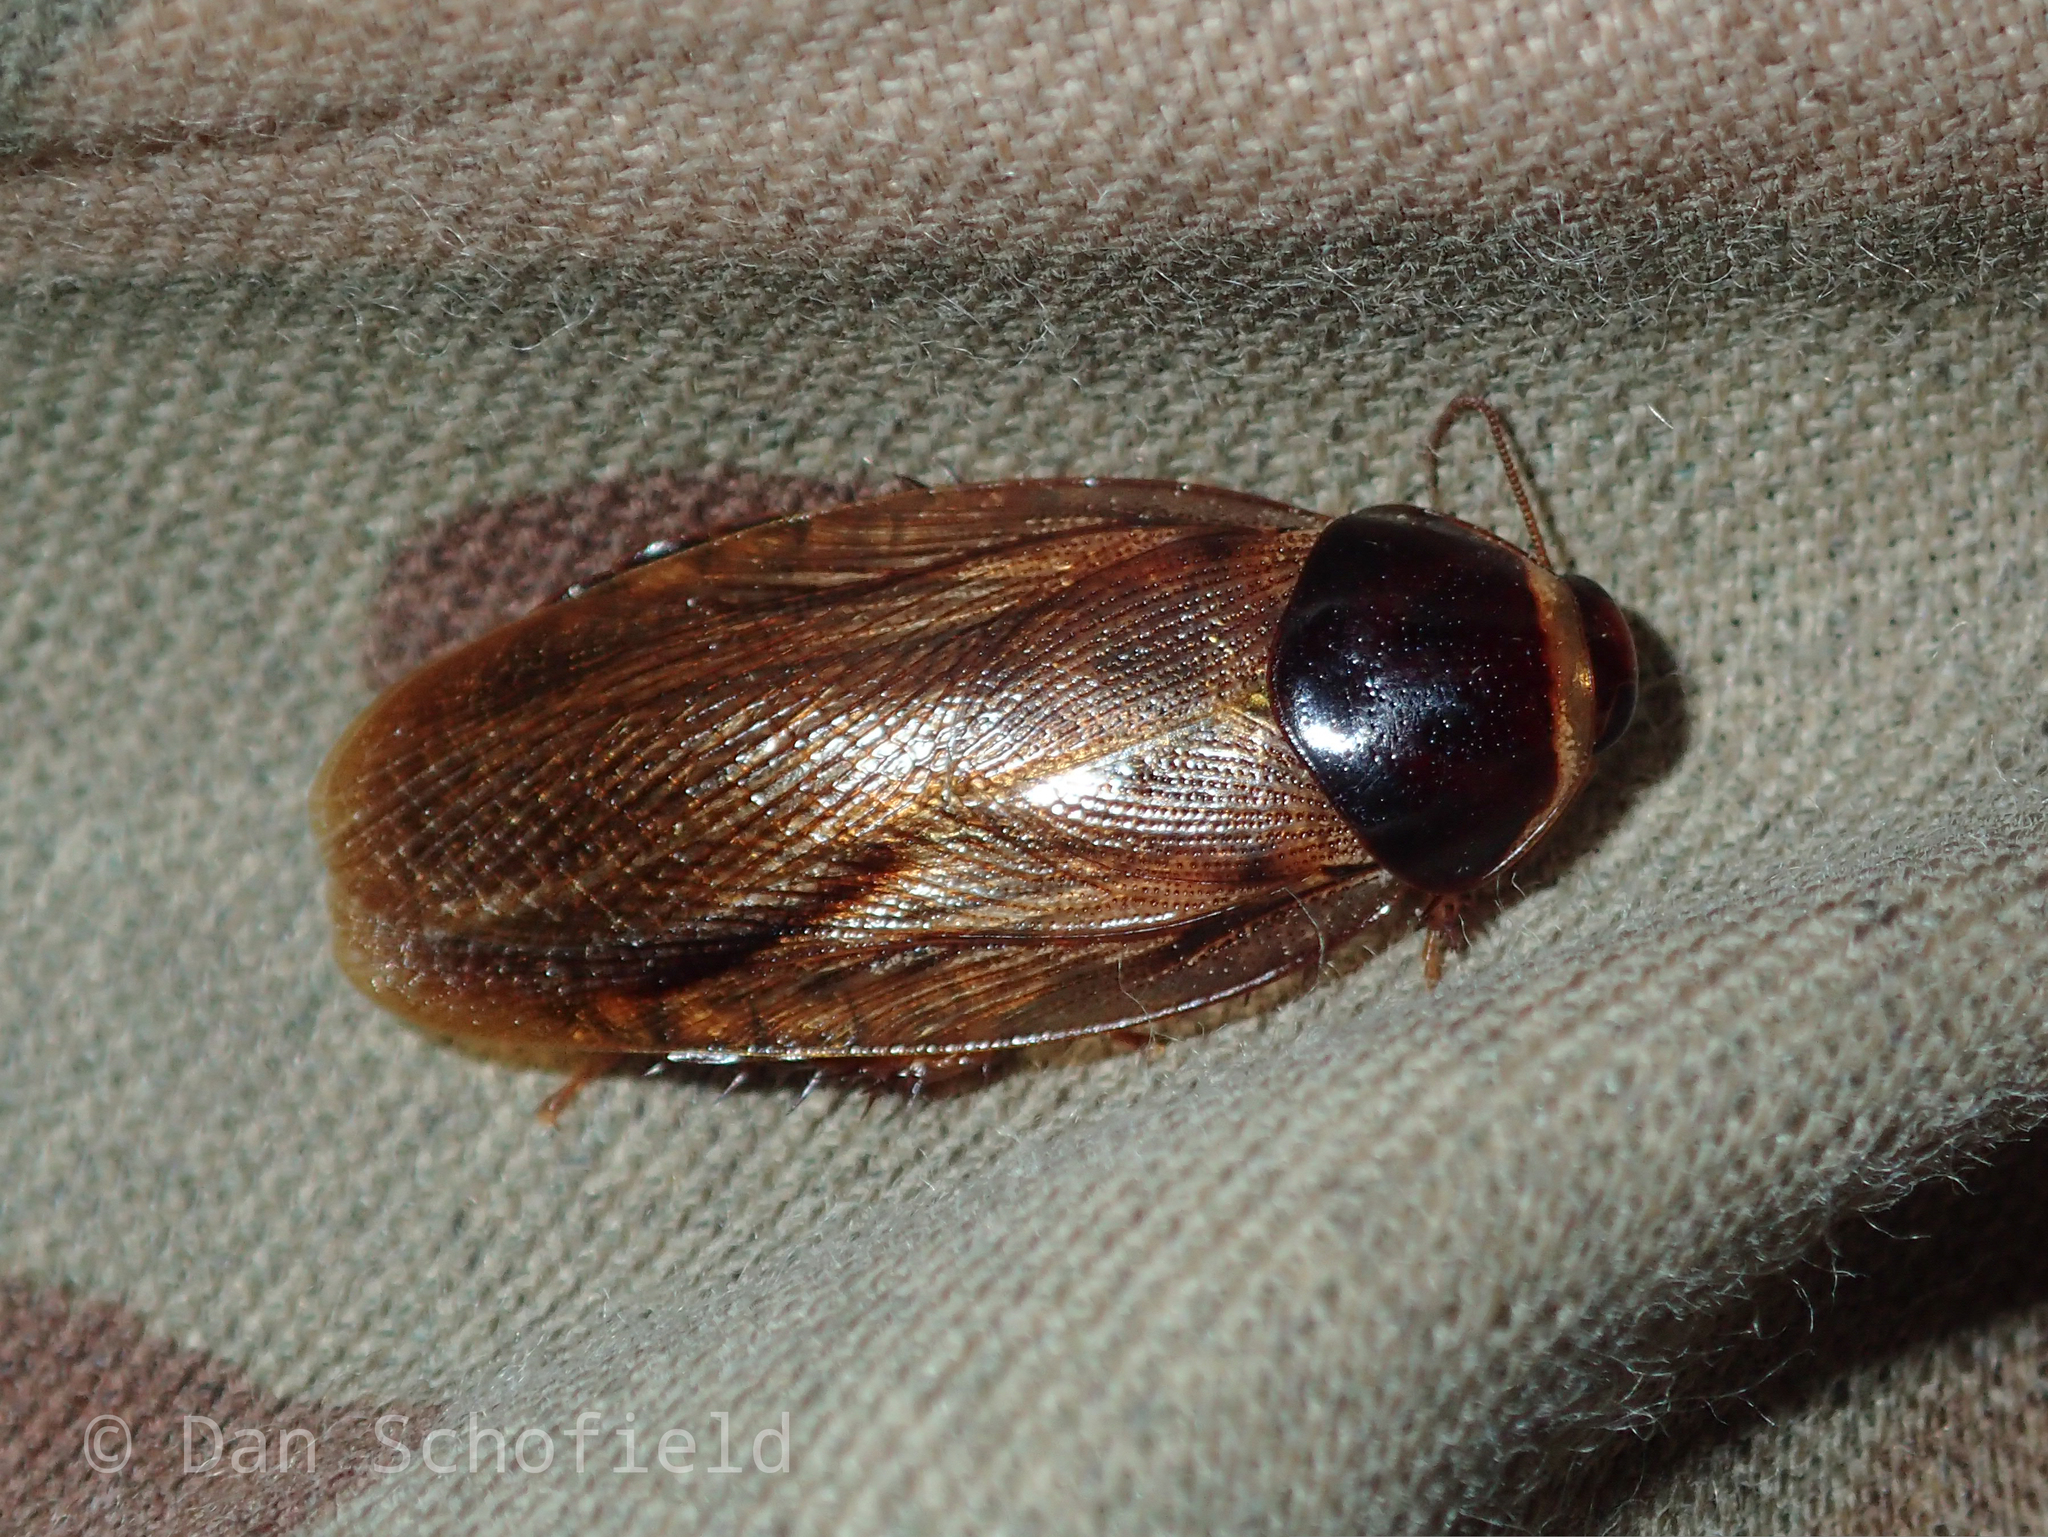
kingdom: Animalia
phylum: Arthropoda
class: Insecta
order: Blattodea
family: Blaberidae
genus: Pycnoscelus
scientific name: Pycnoscelus surinamensis
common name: Surinam cockroach
